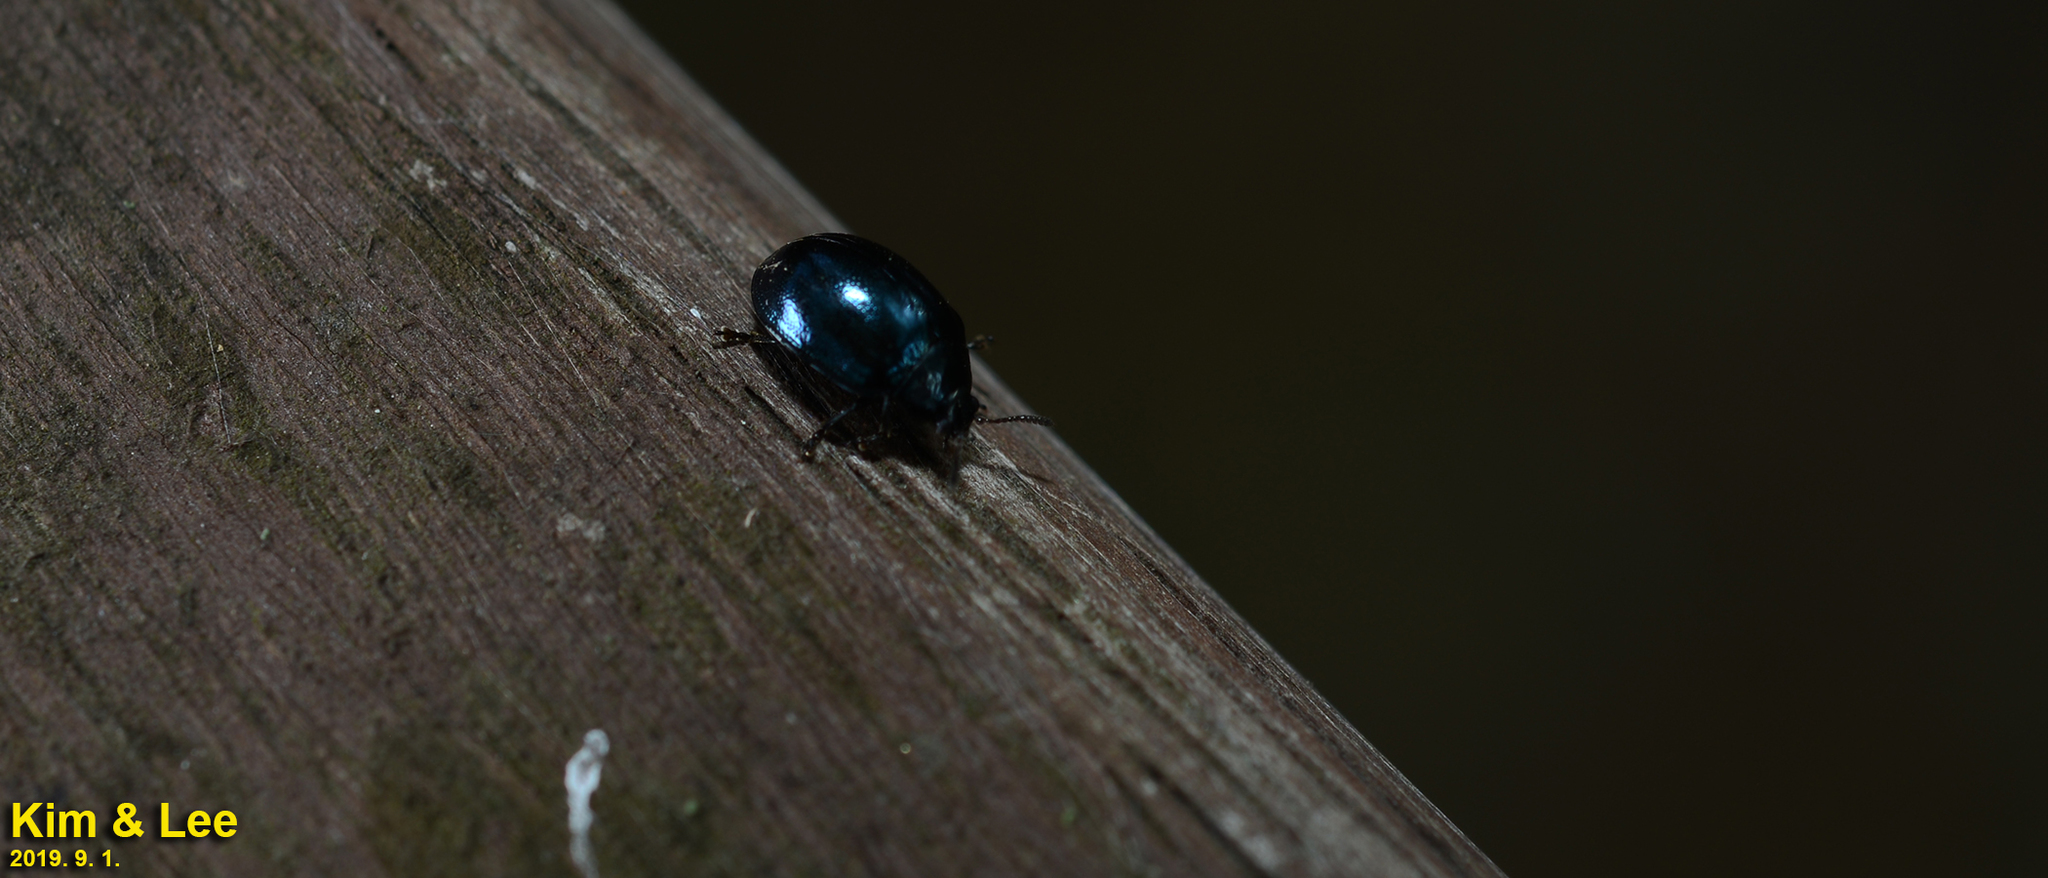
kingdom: Animalia
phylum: Arthropoda
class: Insecta
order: Coleoptera
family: Chrysomelidae
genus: Plagiodera
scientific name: Plagiodera versicolora
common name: Imported willow leaf beetle
